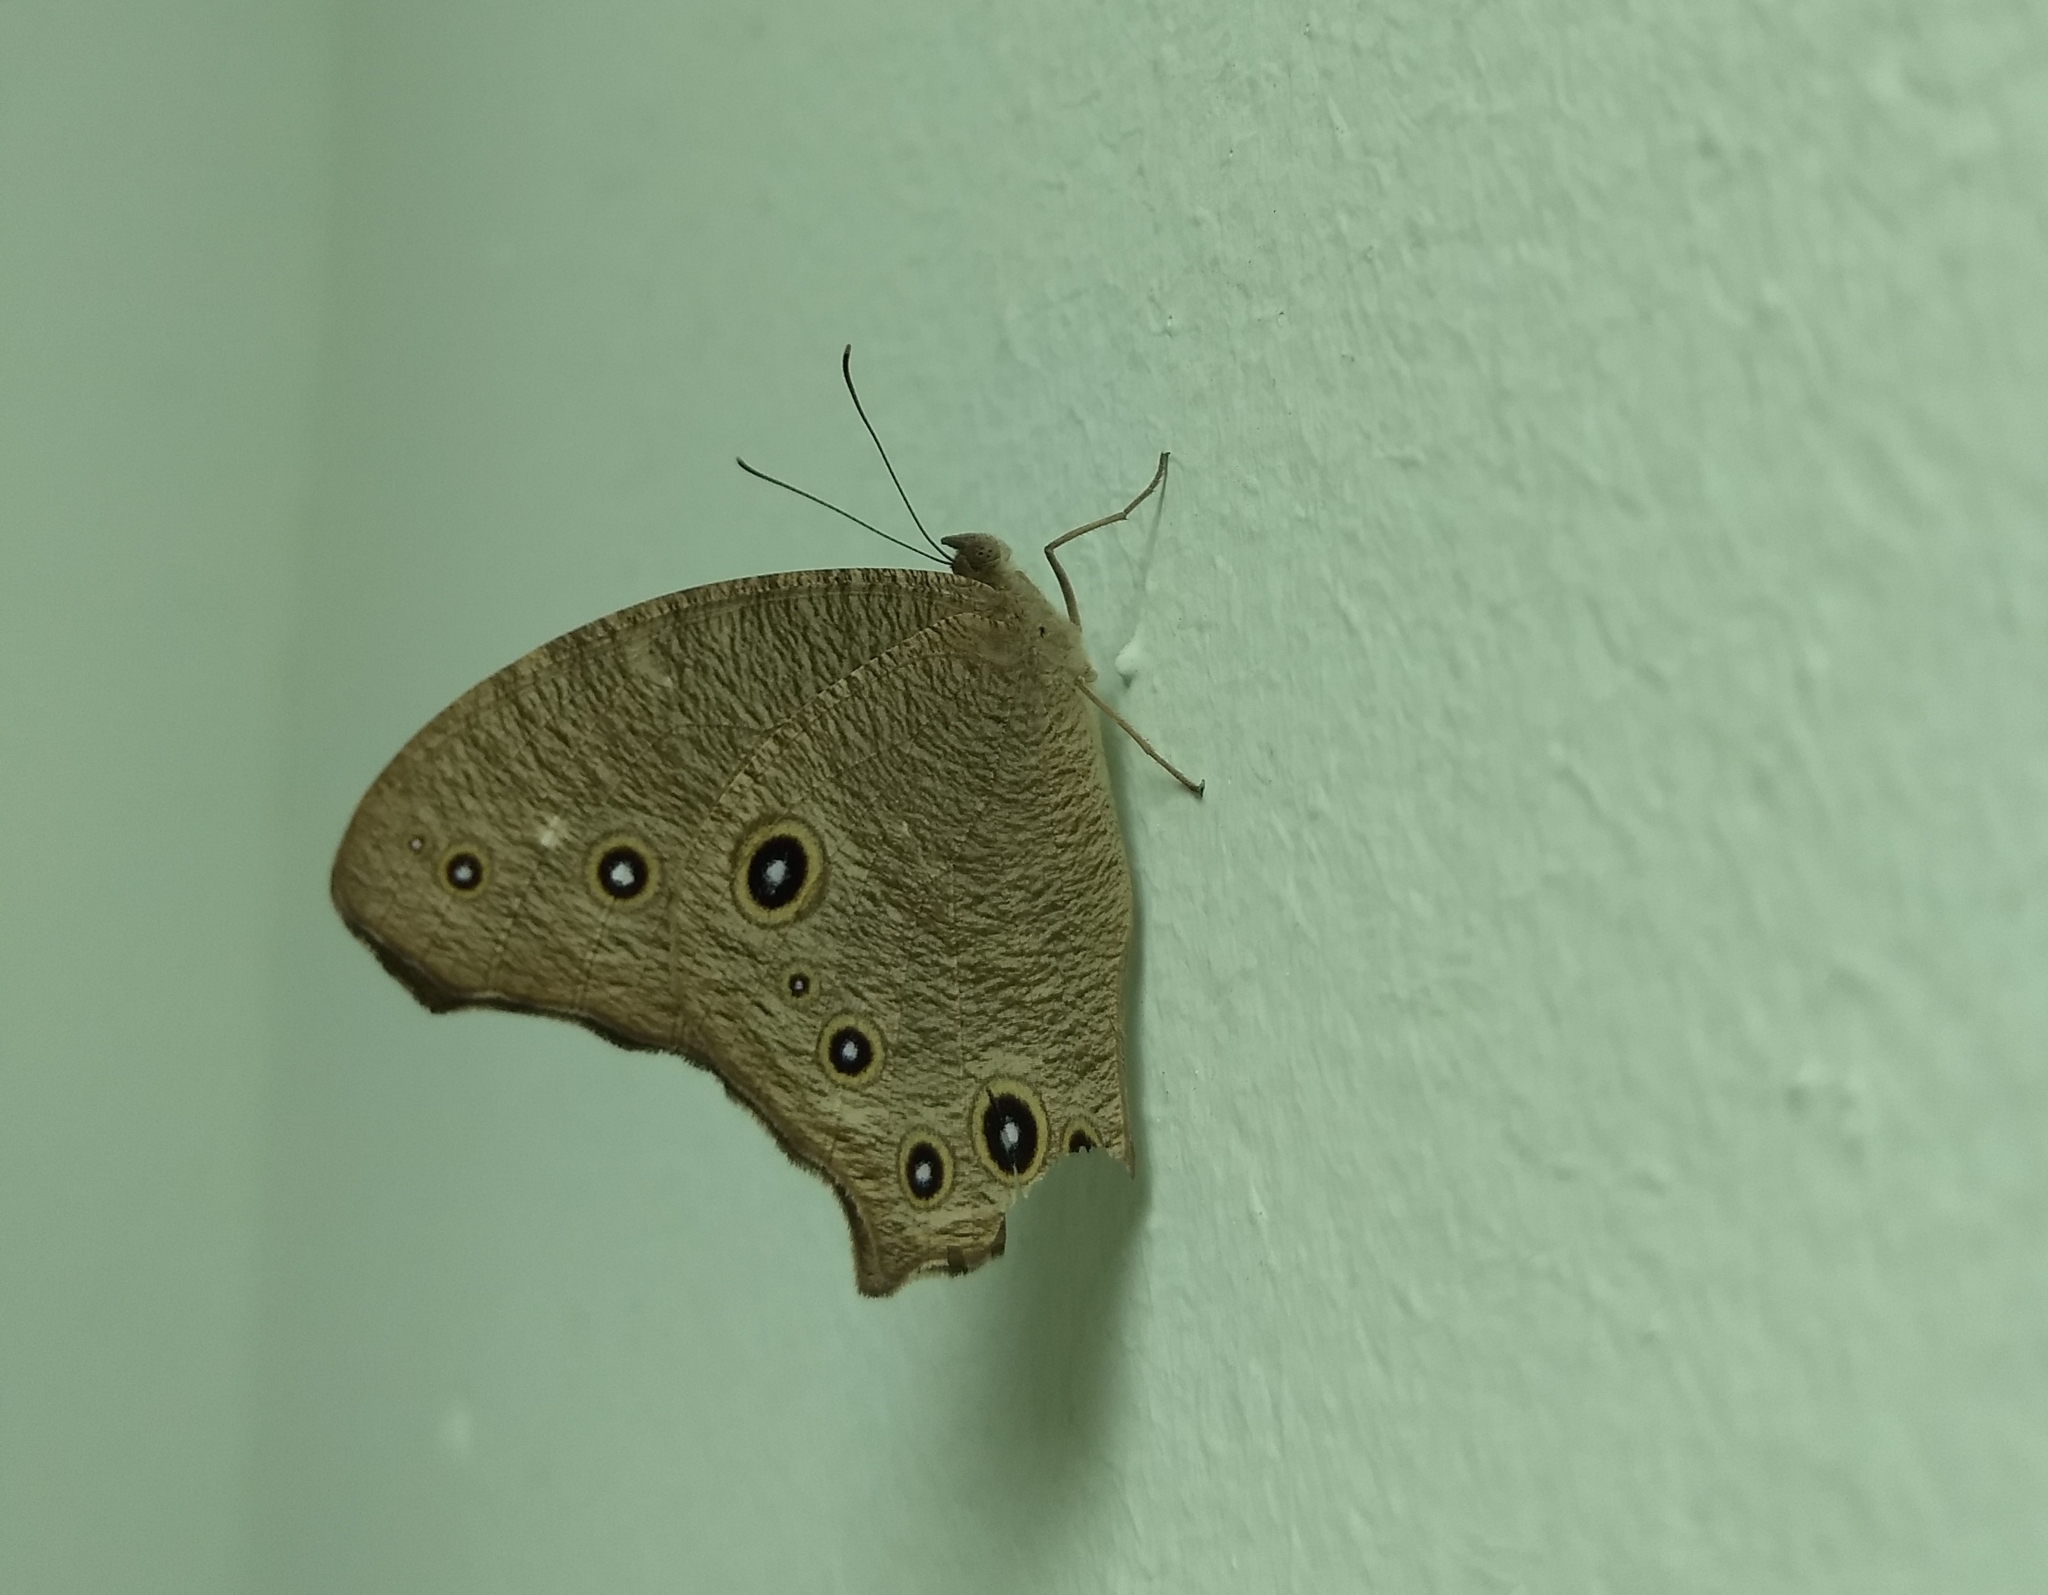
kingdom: Animalia
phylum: Arthropoda
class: Insecta
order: Lepidoptera
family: Nymphalidae
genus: Melanitis
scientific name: Melanitis leda
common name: Twilight brown
